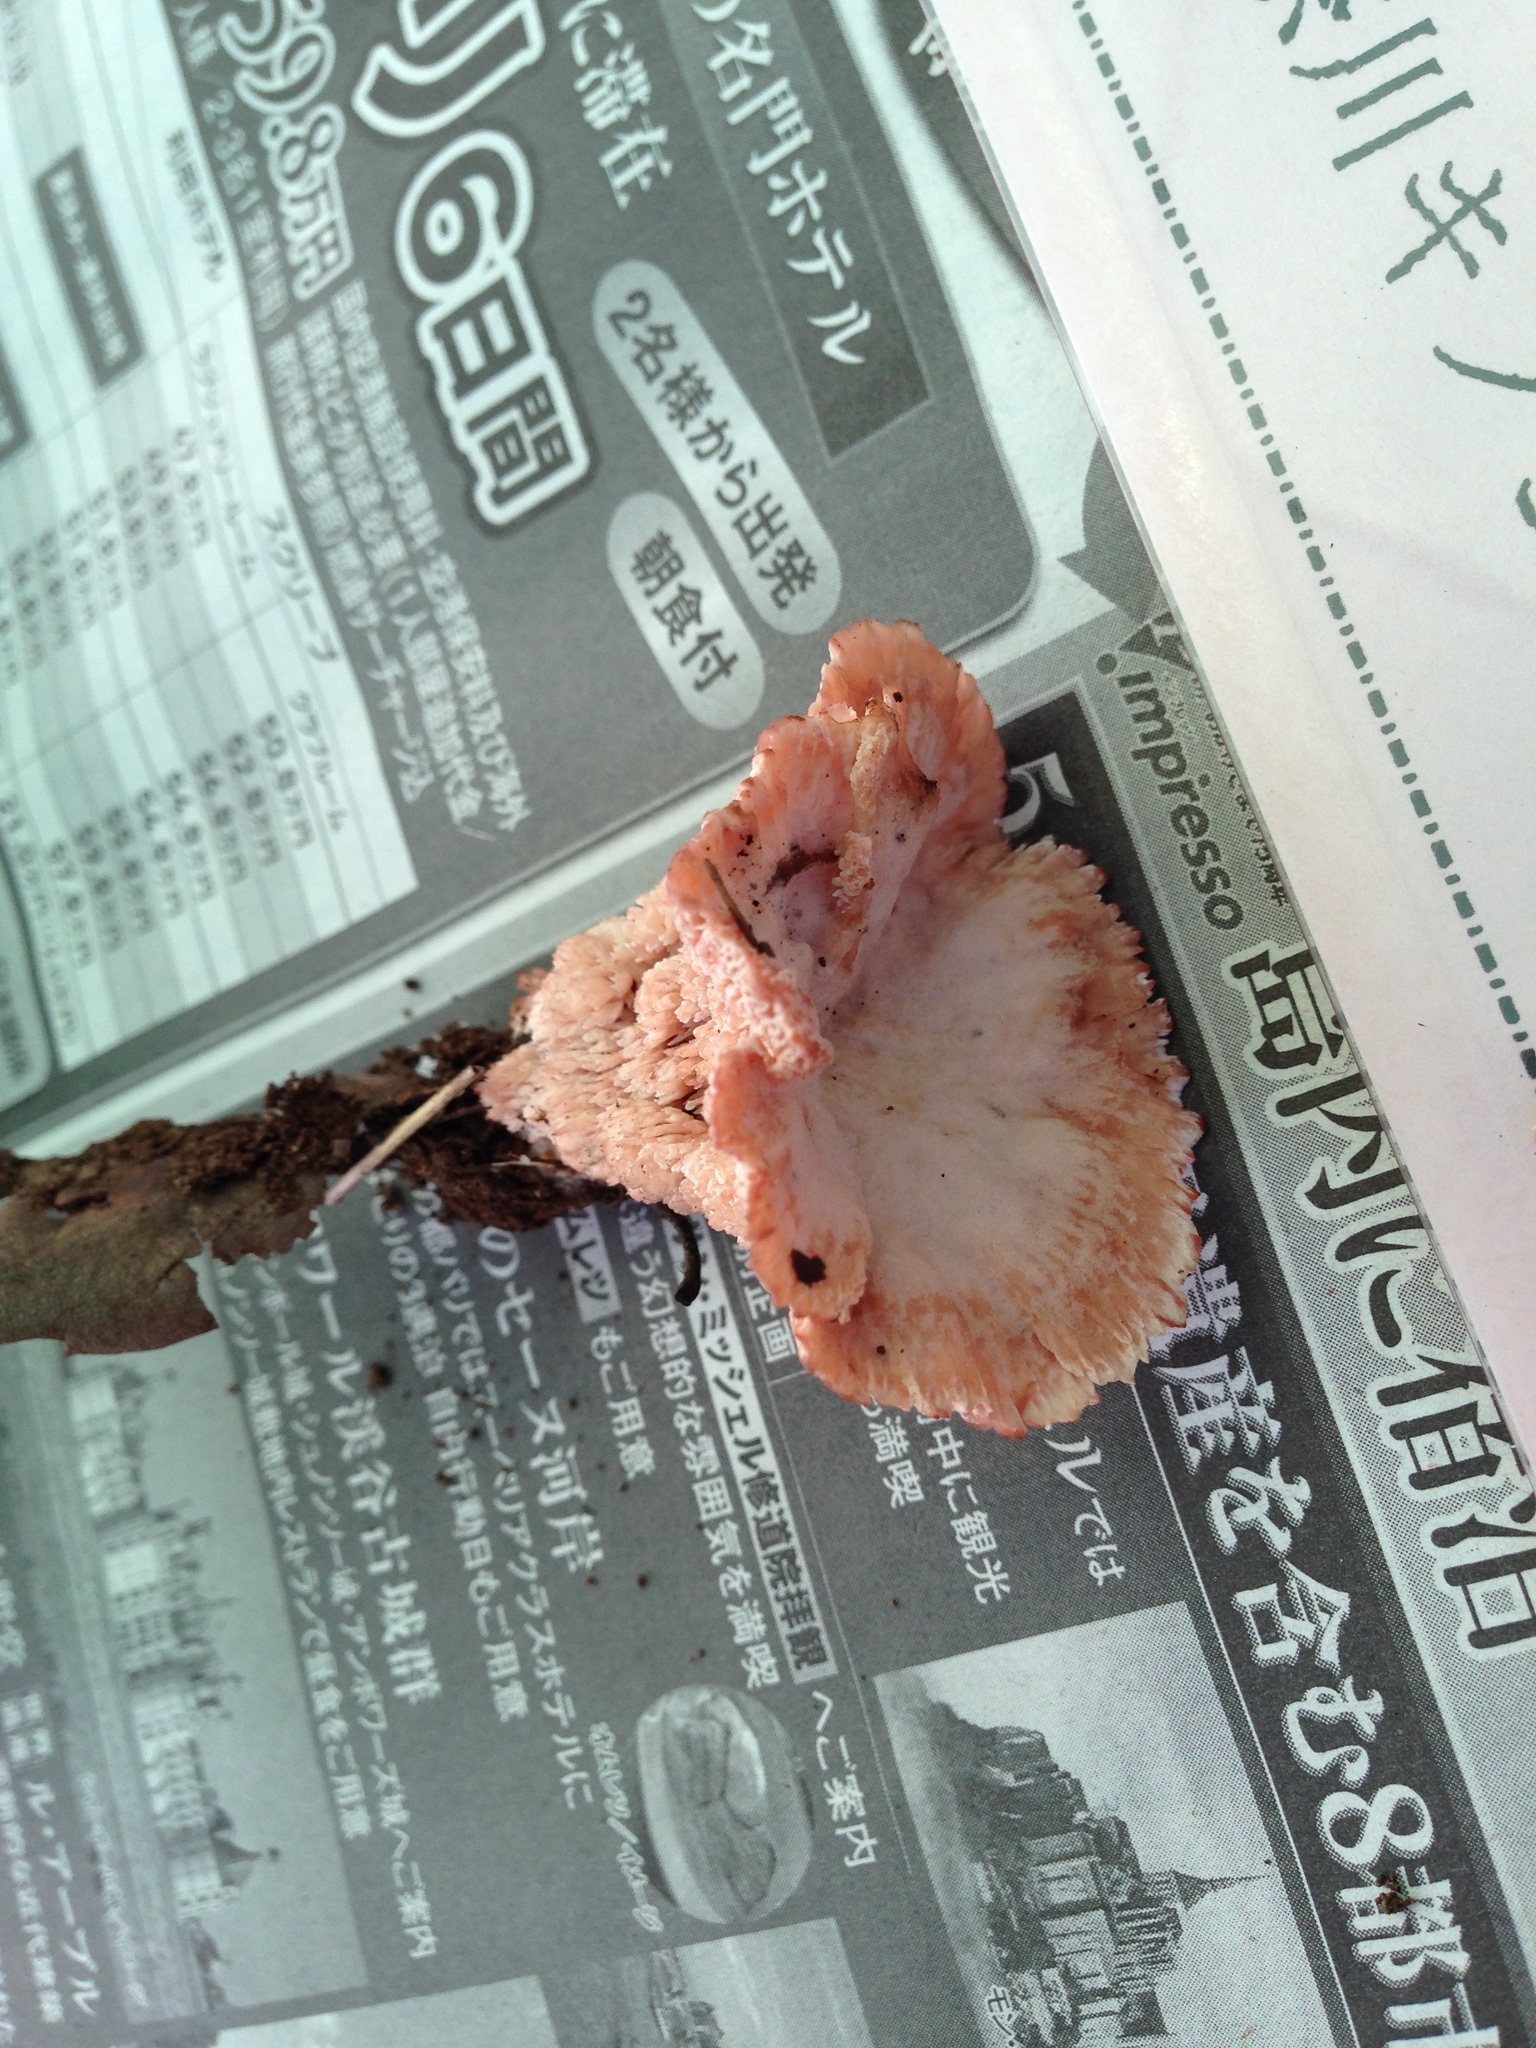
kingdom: Fungi
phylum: Basidiomycota
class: Agaricomycetes
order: Polyporales
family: Podoscyphaceae
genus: Abortiporus
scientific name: Abortiporus biennis
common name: Blushing rosette
